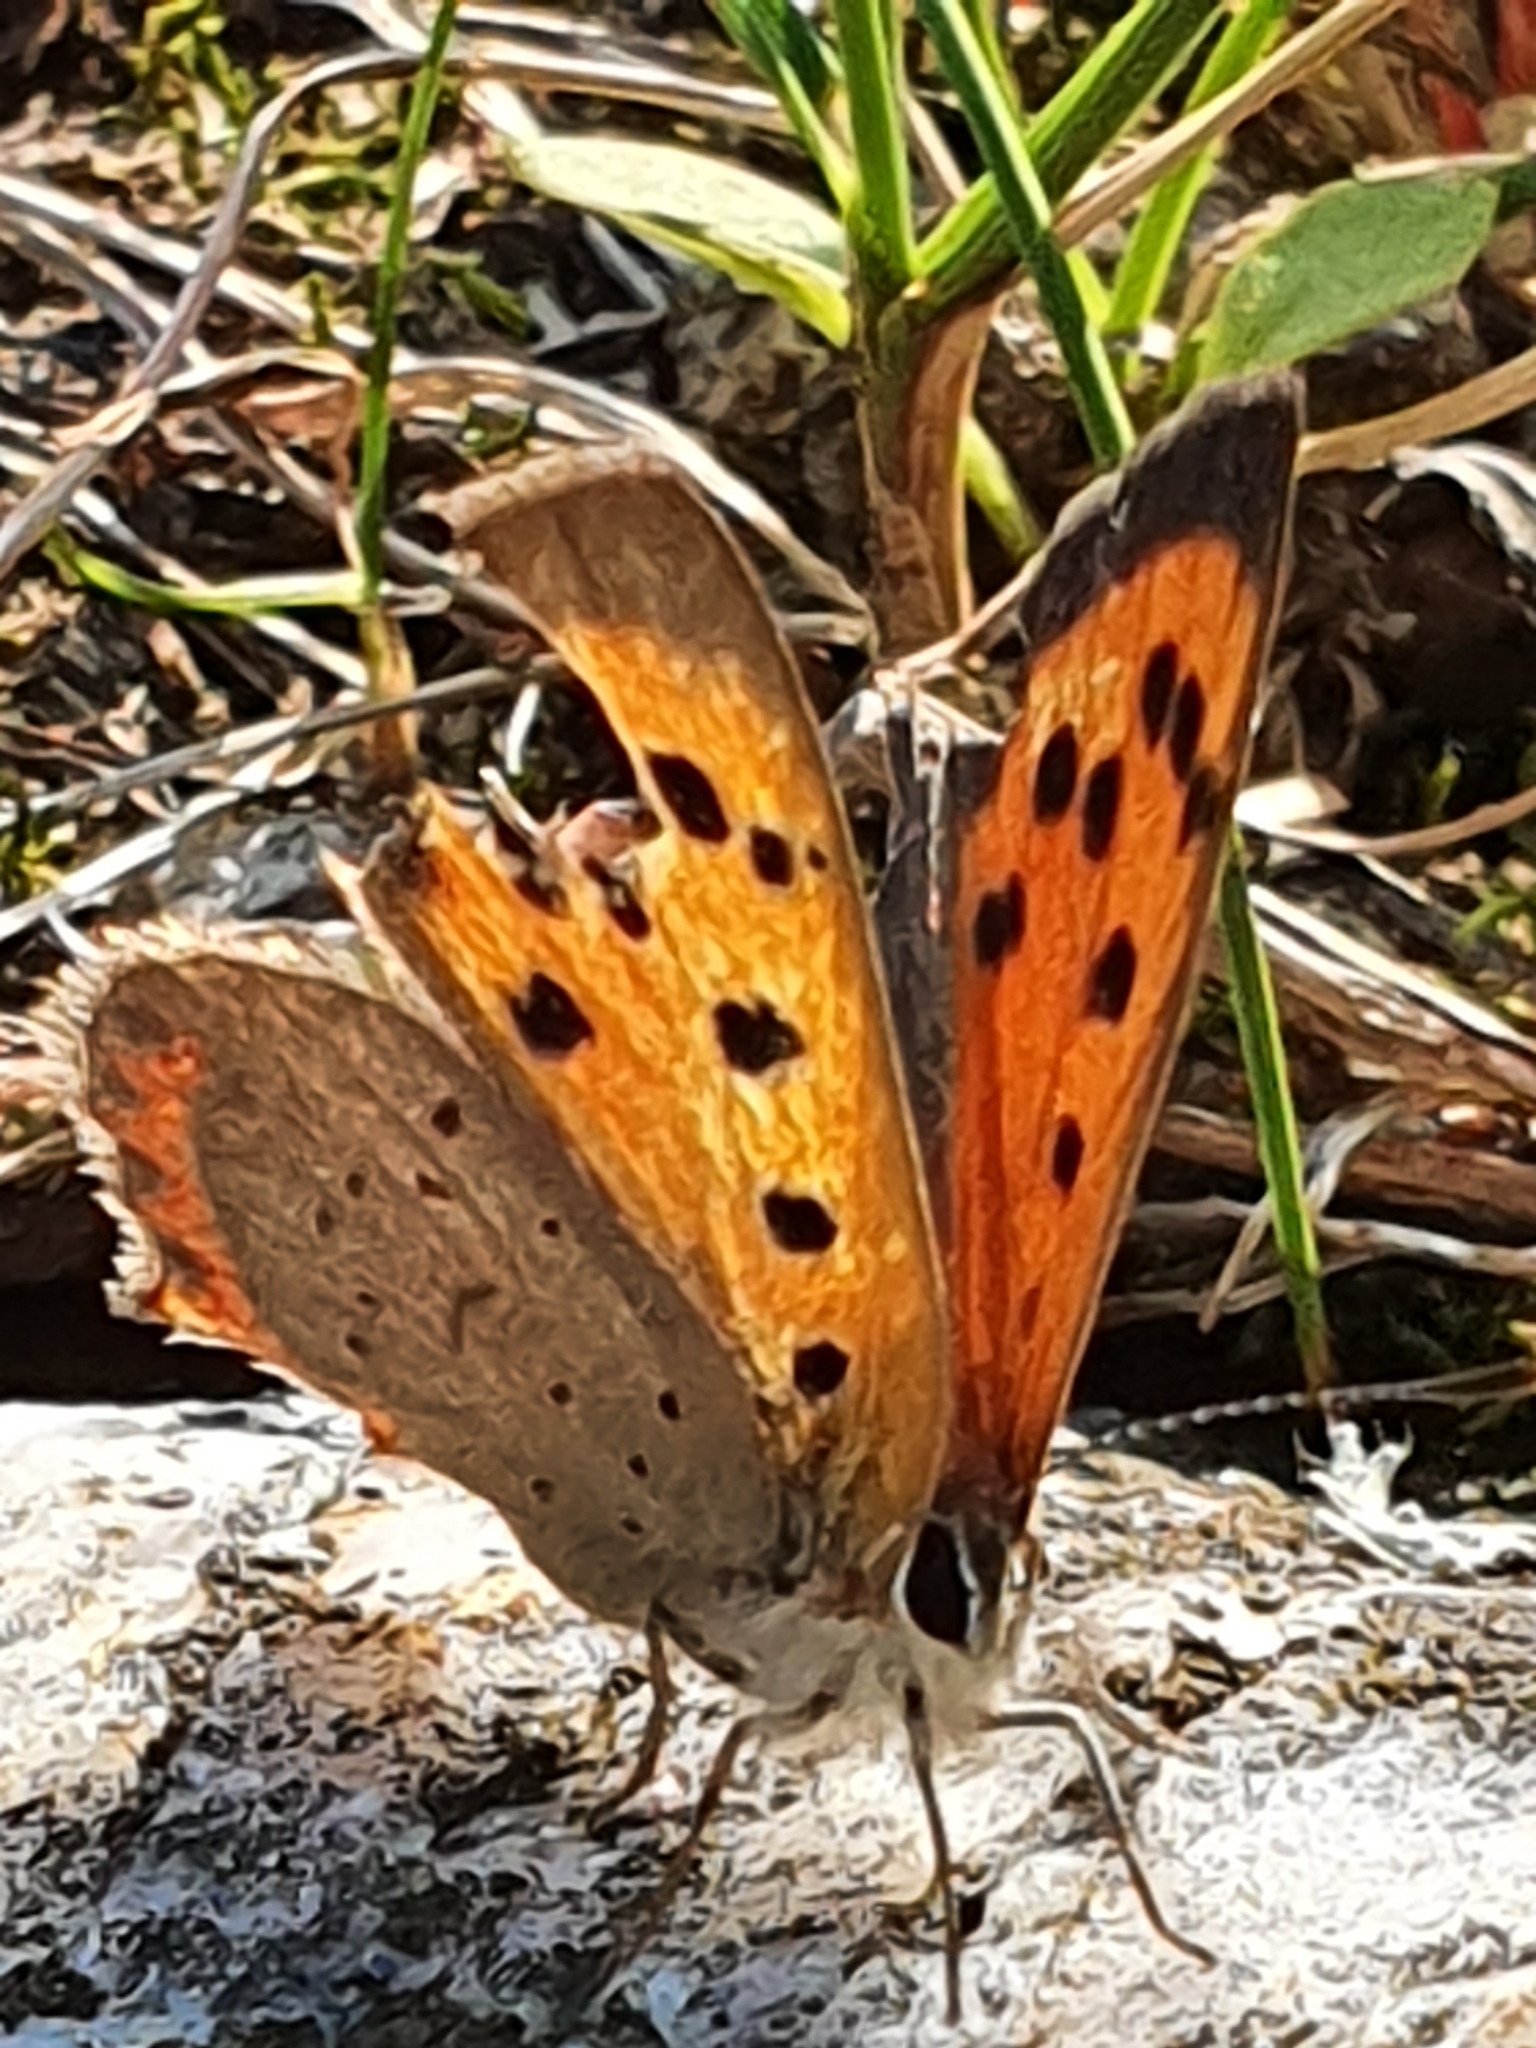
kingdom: Animalia
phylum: Arthropoda
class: Insecta
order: Lepidoptera
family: Lycaenidae
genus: Lycaena
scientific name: Lycaena phlaeas
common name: Small copper
